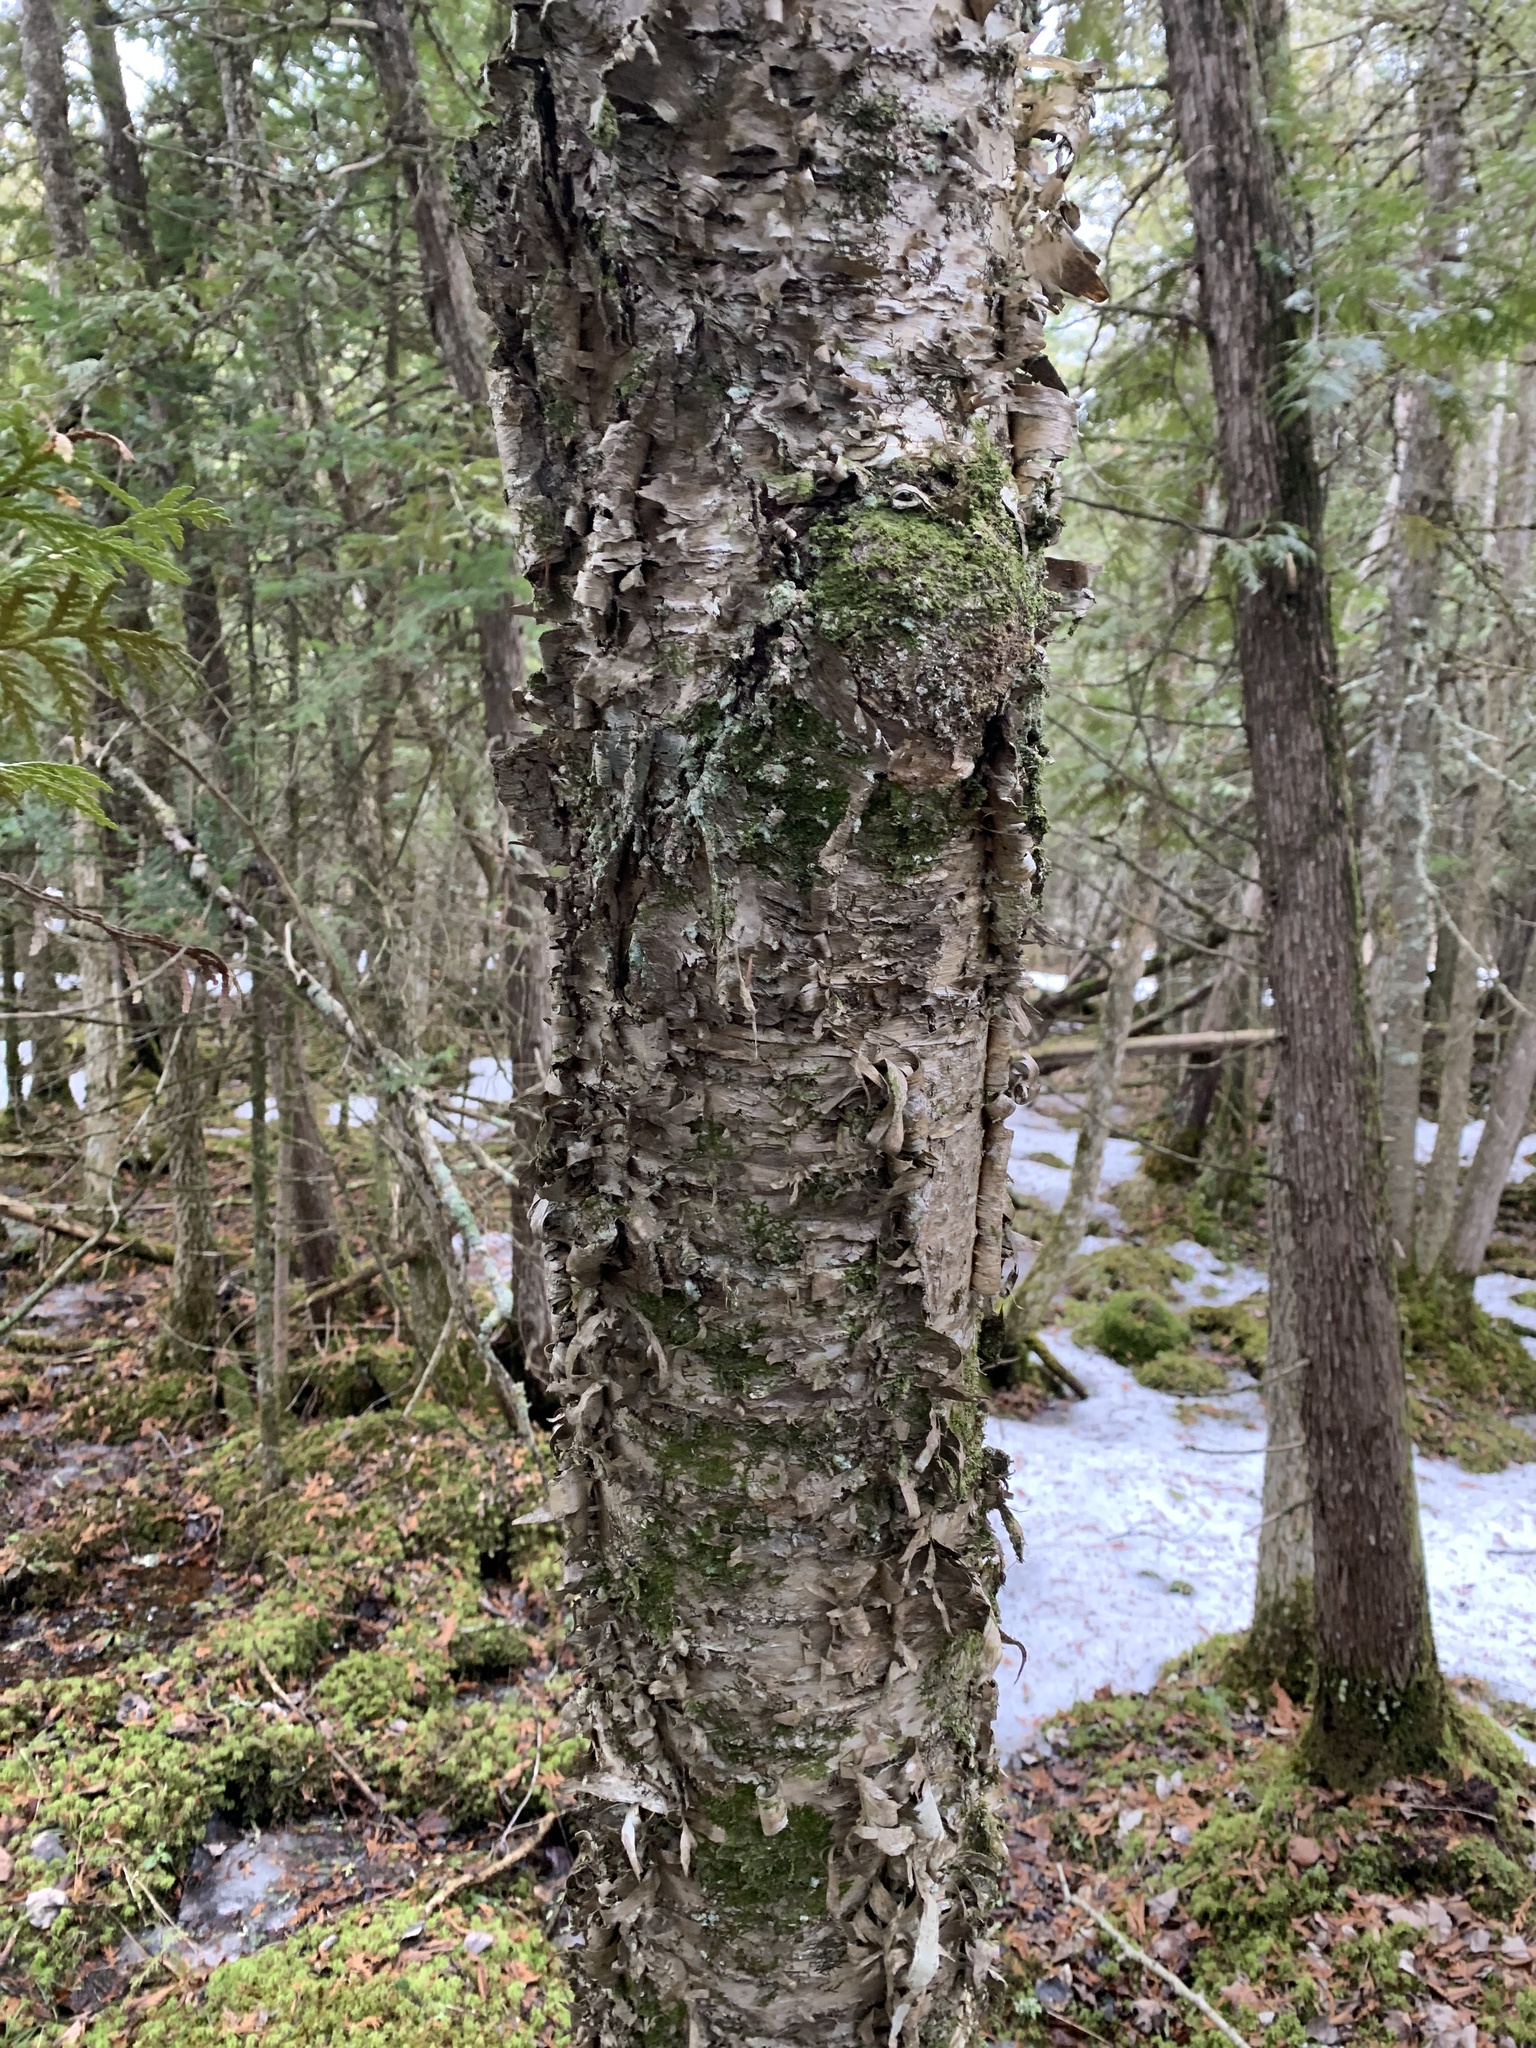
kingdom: Plantae
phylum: Tracheophyta
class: Magnoliopsida
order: Fagales
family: Betulaceae
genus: Betula
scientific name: Betula alleghaniensis
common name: Yellow birch
